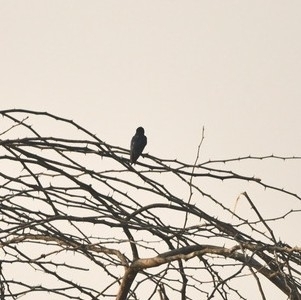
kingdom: Animalia
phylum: Chordata
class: Aves
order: Passeriformes
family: Hirundinidae
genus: Hirundo
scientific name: Hirundo rustica
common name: Barn swallow
